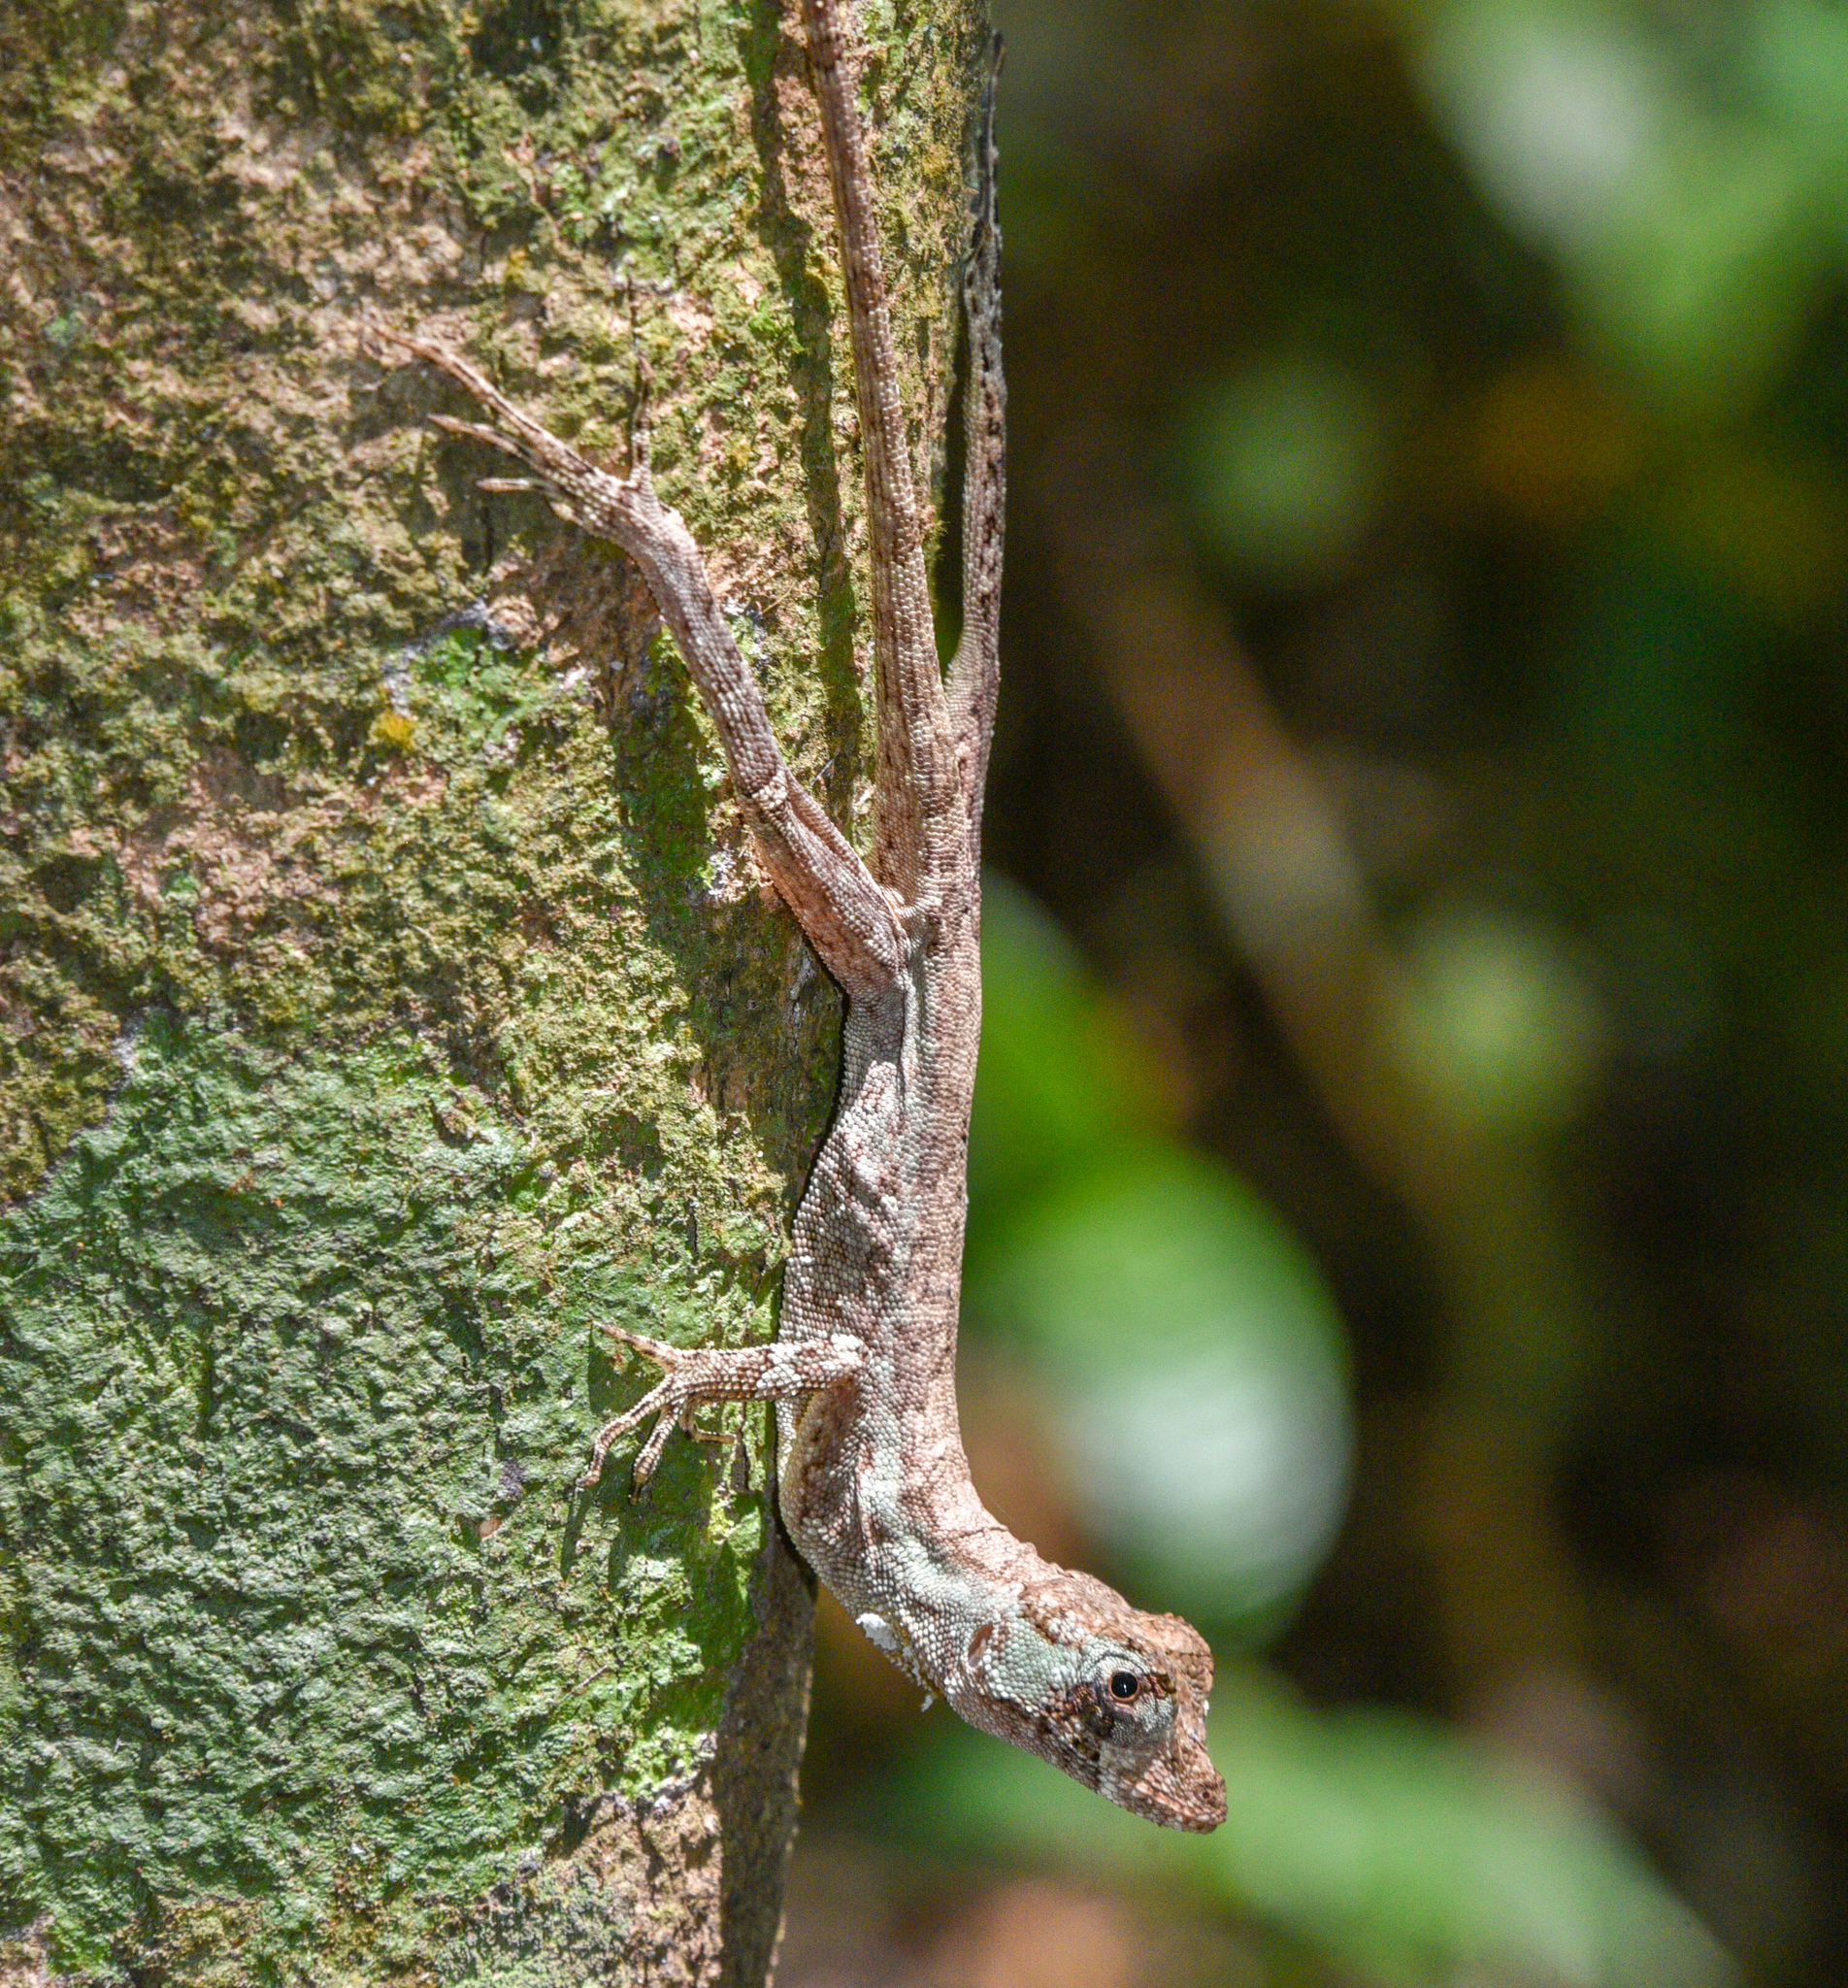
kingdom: Animalia
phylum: Chordata
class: Squamata
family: Dactyloidae
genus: Anolis
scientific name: Anolis capito
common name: Bighead anole
